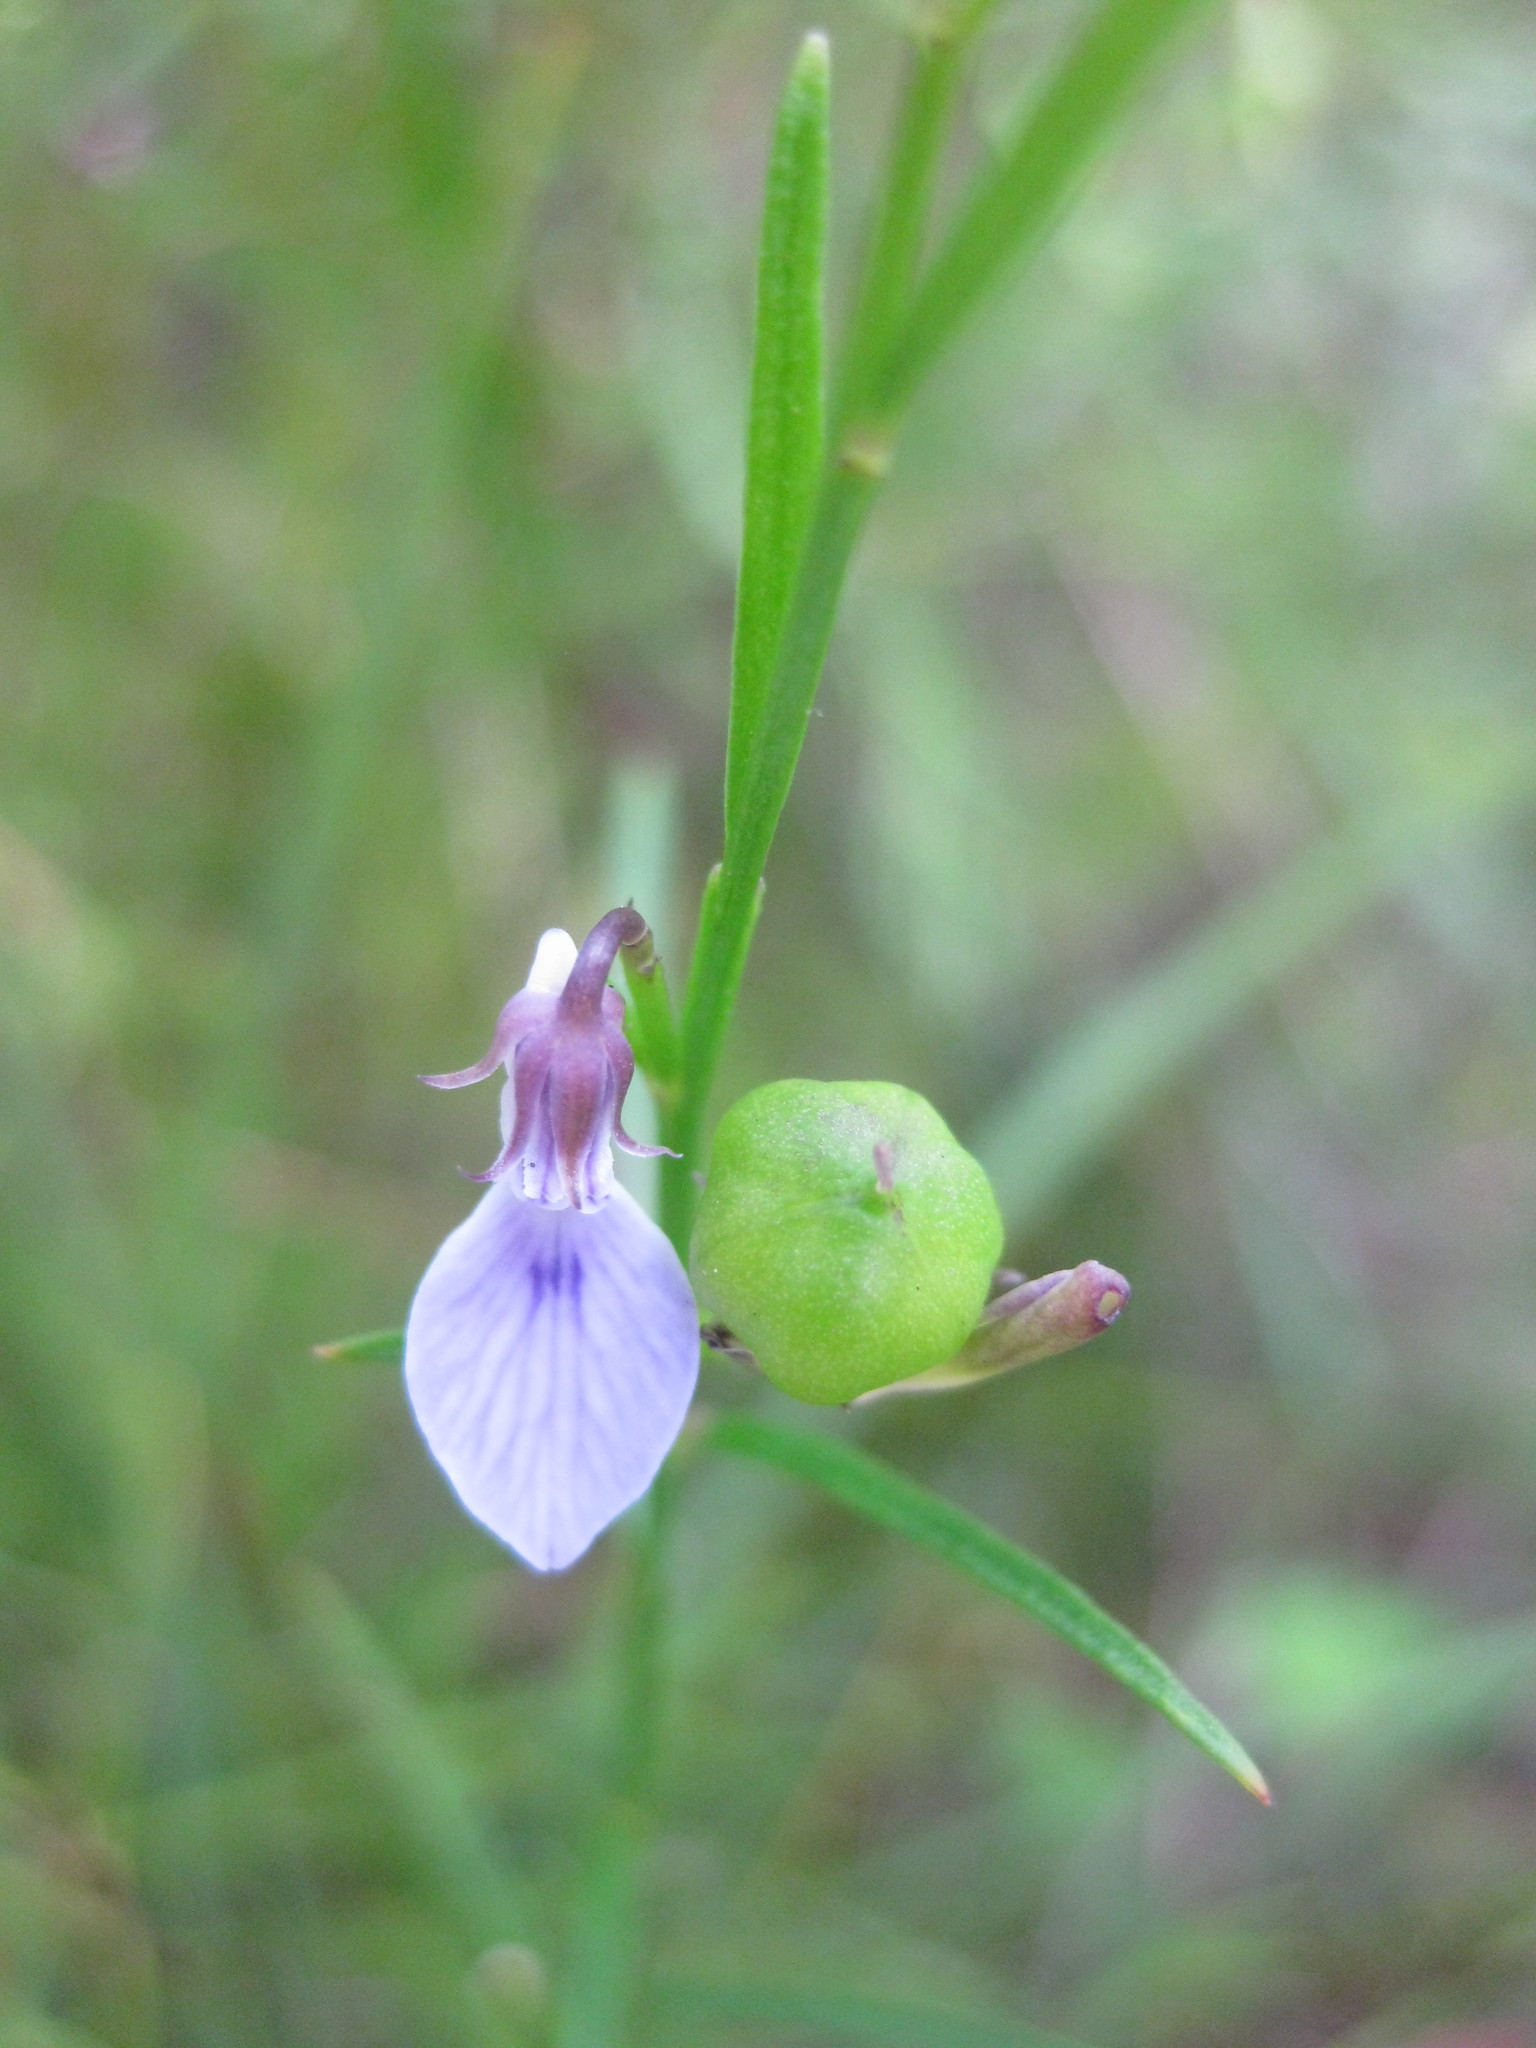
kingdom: Plantae
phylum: Tracheophyta
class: Magnoliopsida
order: Malpighiales
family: Violaceae
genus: Pigea
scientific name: Pigea vernonii
